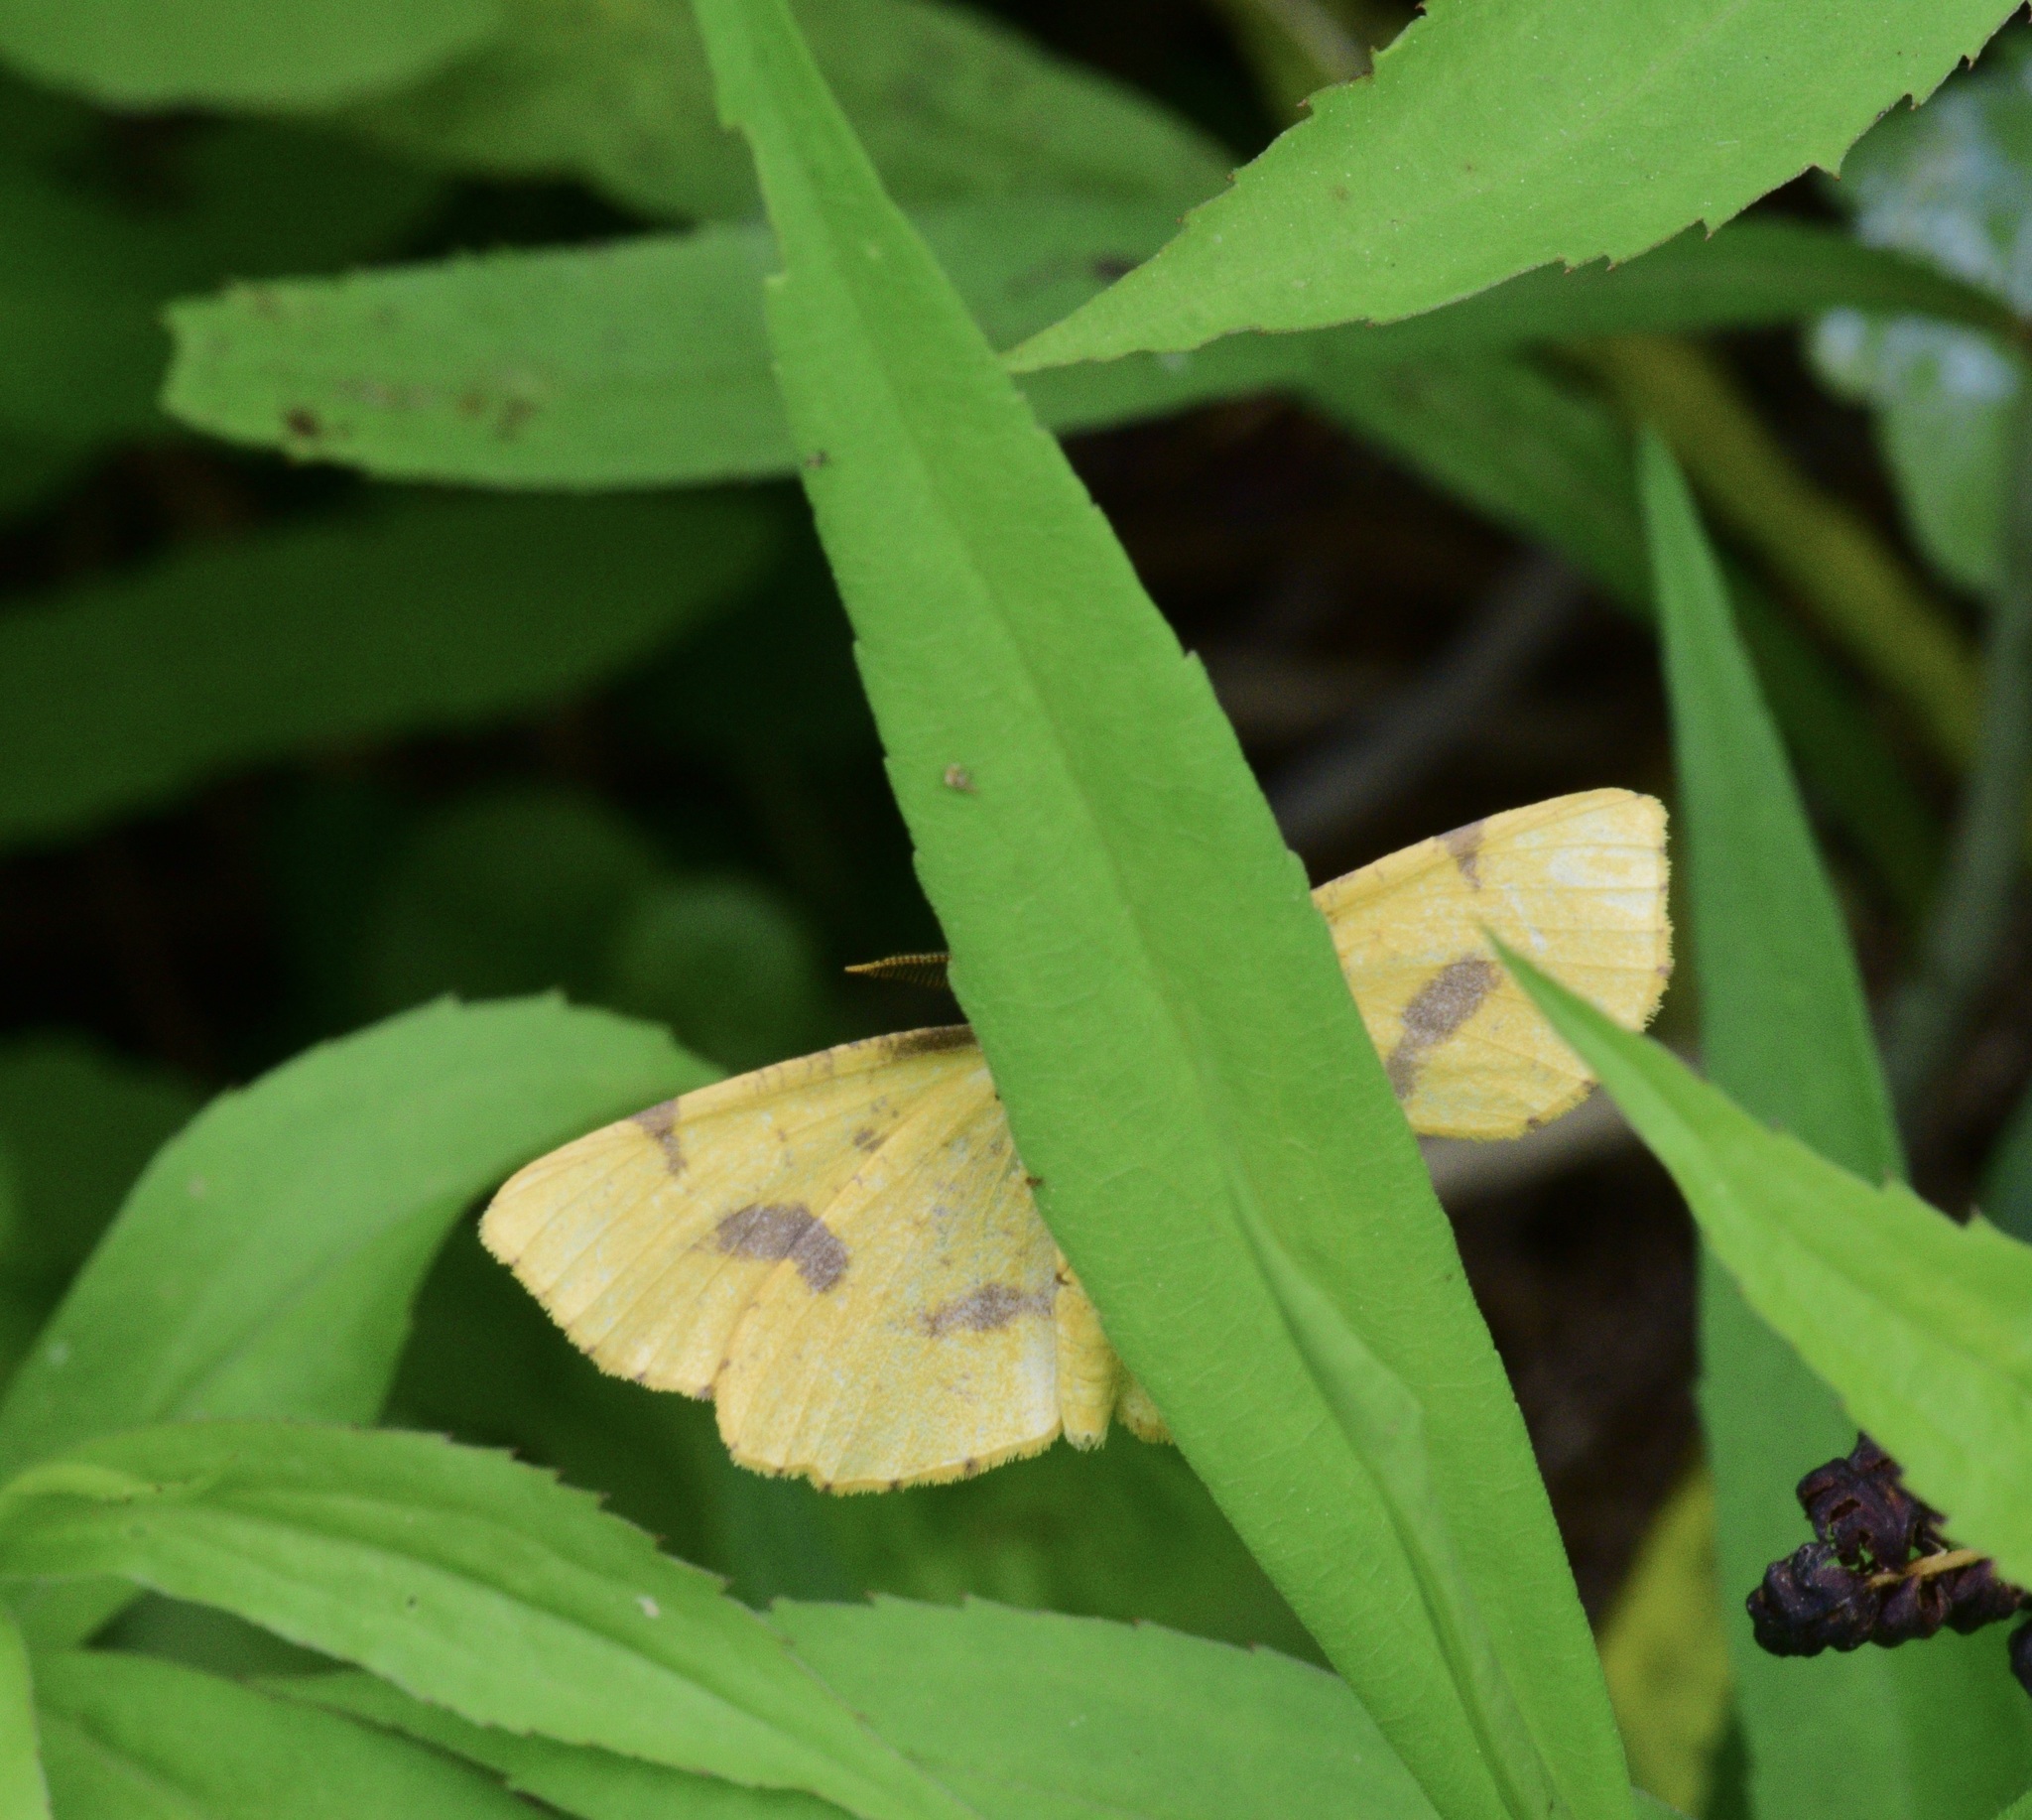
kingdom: Animalia
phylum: Arthropoda
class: Insecta
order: Lepidoptera
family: Geometridae
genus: Xanthotype
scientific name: Xanthotype
